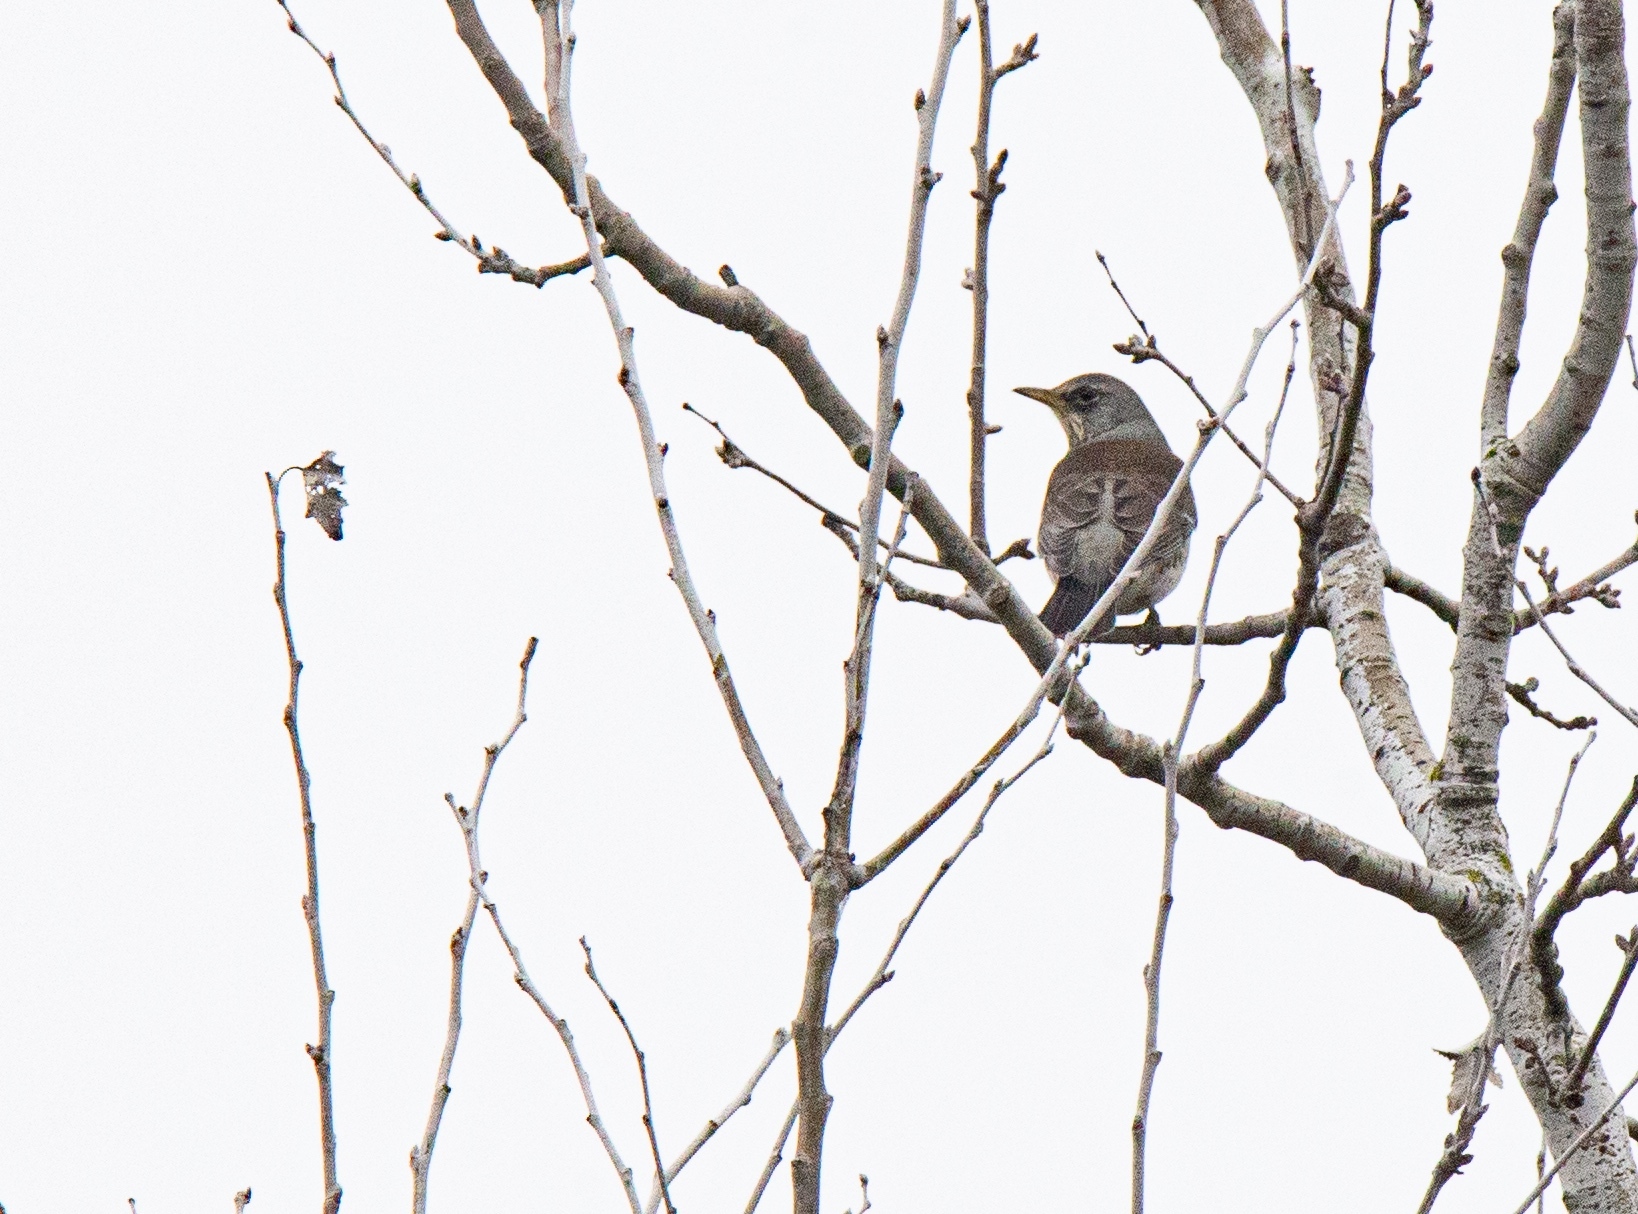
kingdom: Animalia
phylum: Chordata
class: Aves
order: Passeriformes
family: Turdidae
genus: Turdus
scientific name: Turdus pilaris
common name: Fieldfare
